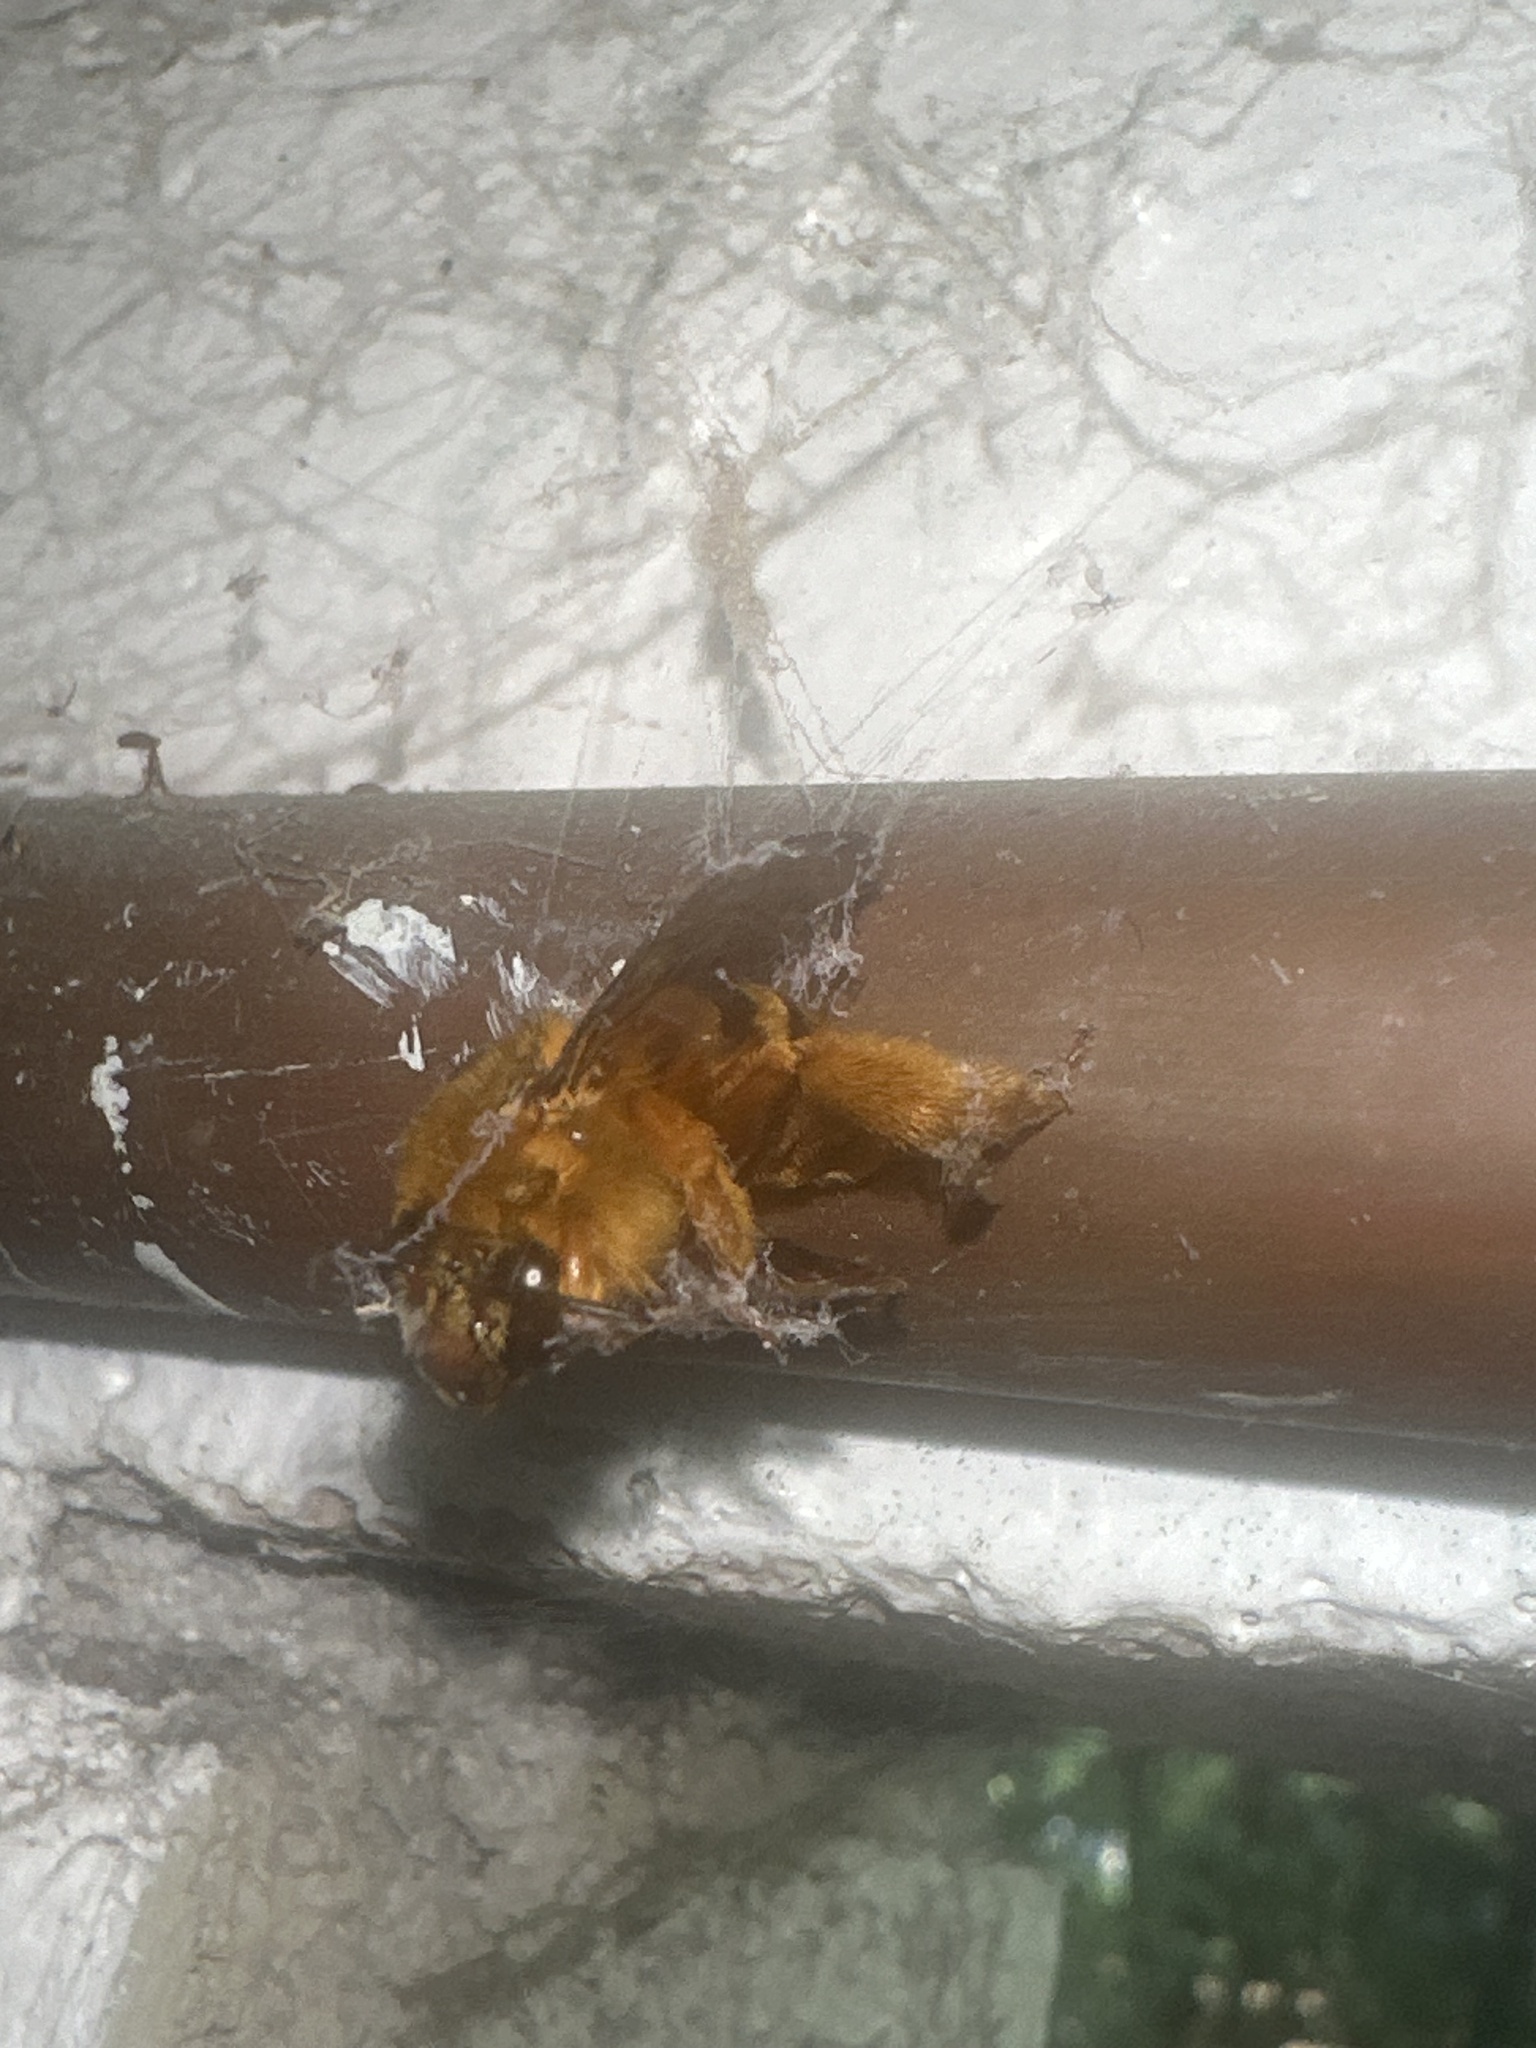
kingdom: Animalia
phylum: Arthropoda
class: Insecta
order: Hymenoptera
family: Apidae
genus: Amegilla
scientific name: Amegilla bombiformis
